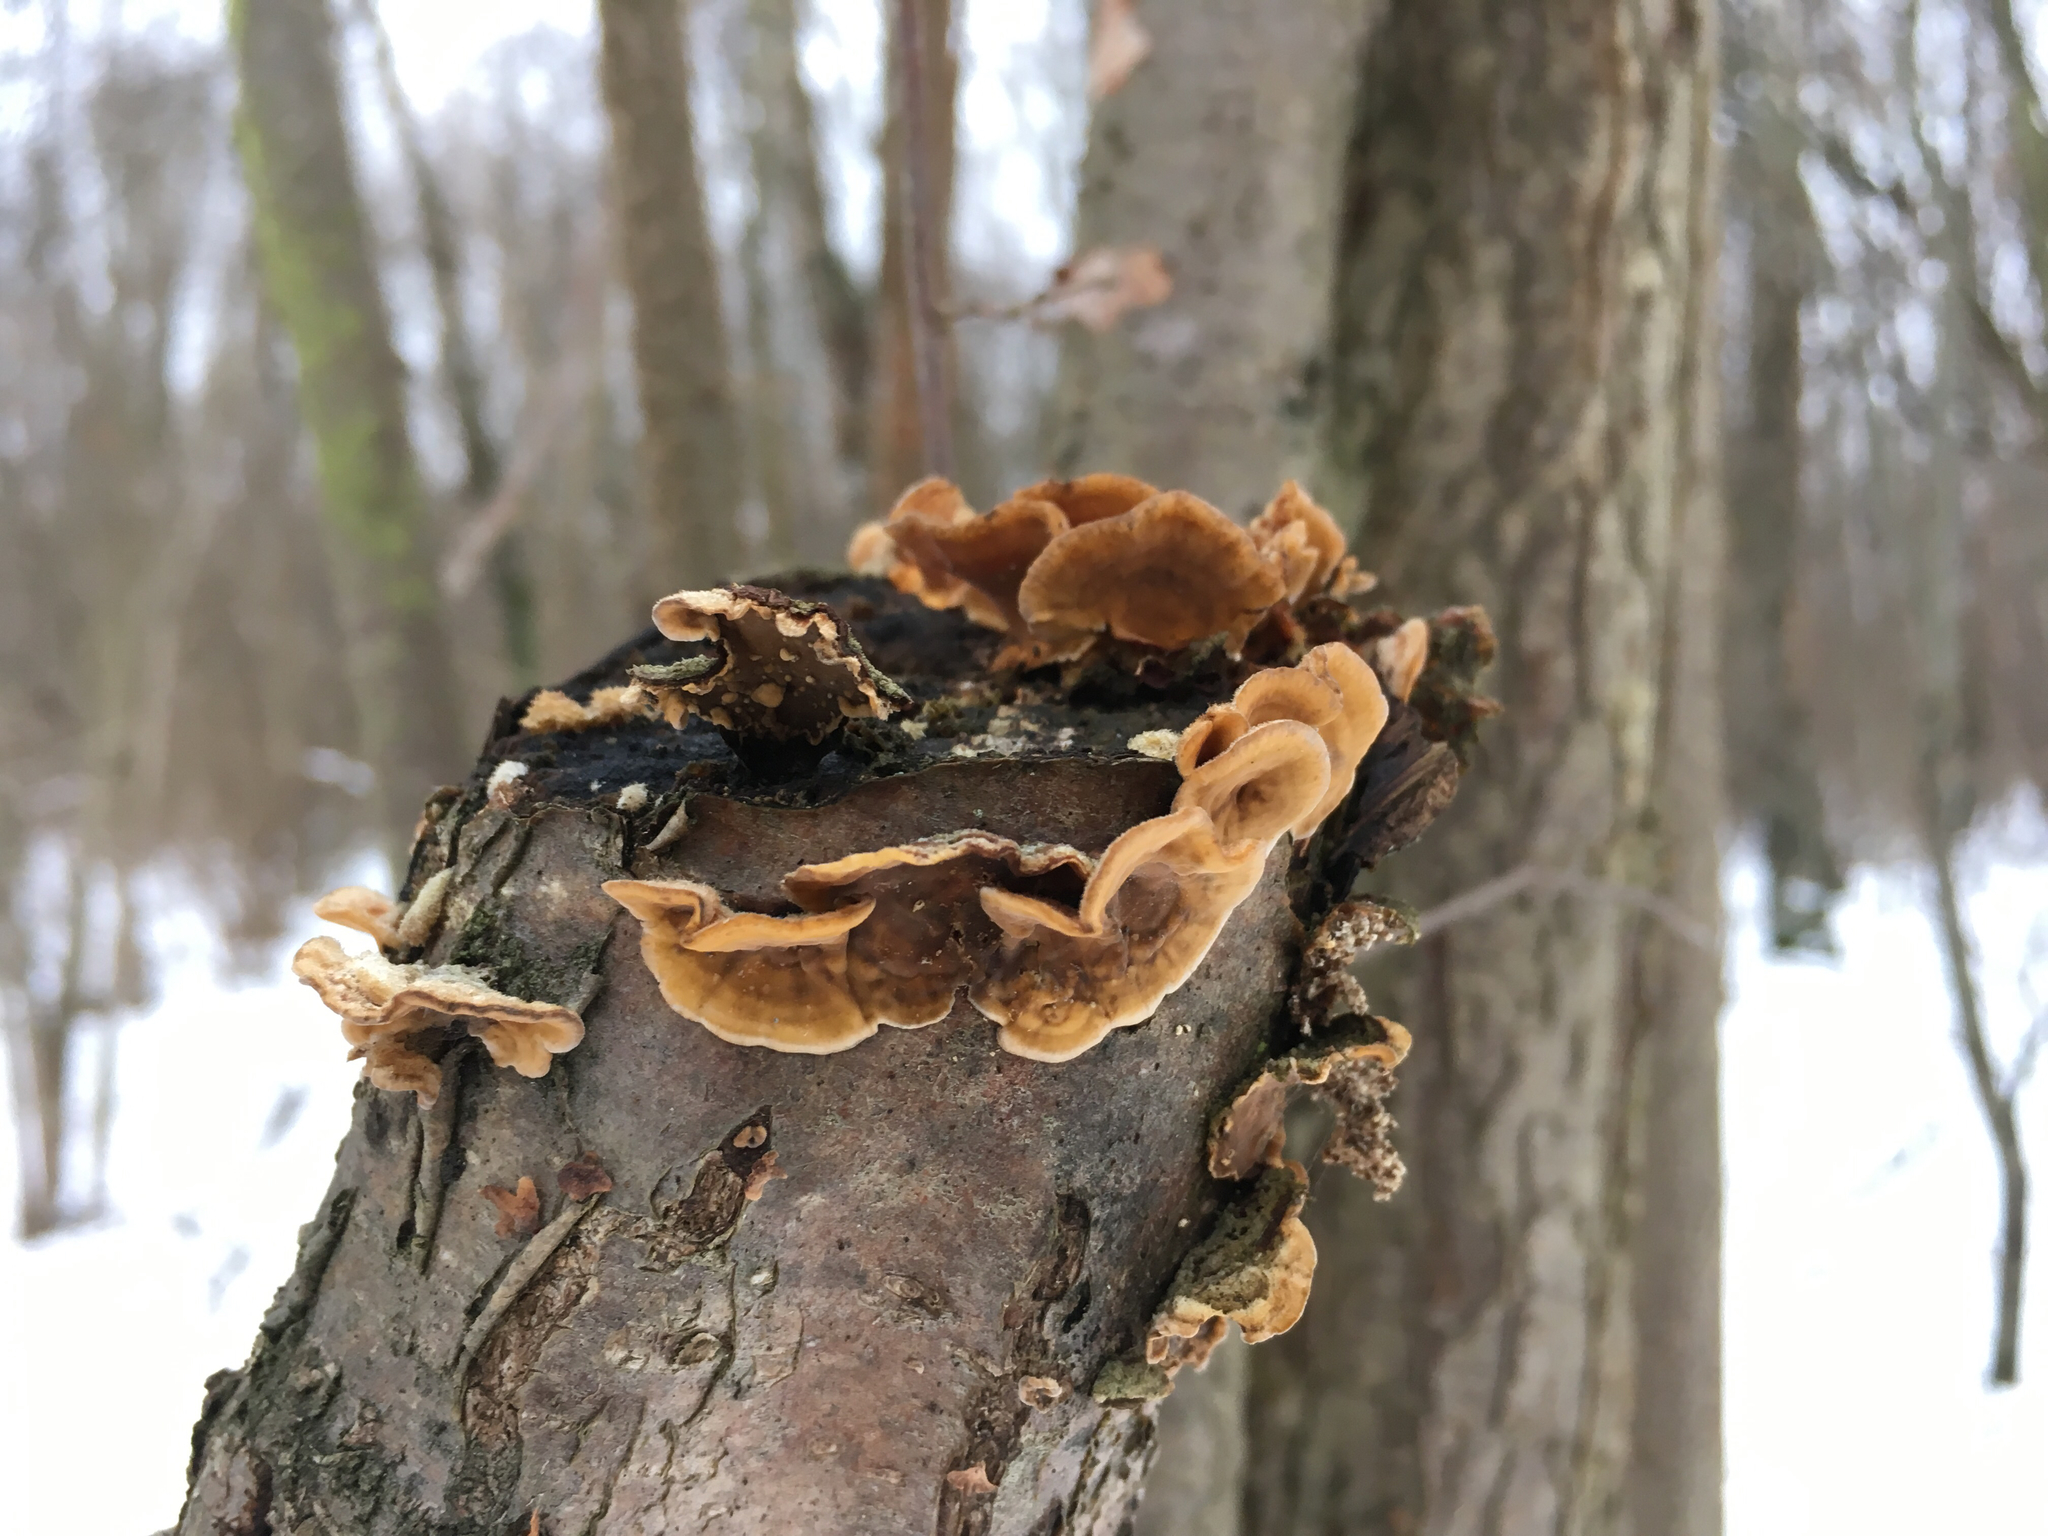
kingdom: Fungi
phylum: Basidiomycota
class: Agaricomycetes
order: Russulales
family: Stereaceae
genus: Stereum
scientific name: Stereum hirsutum
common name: Hairy curtain crust
